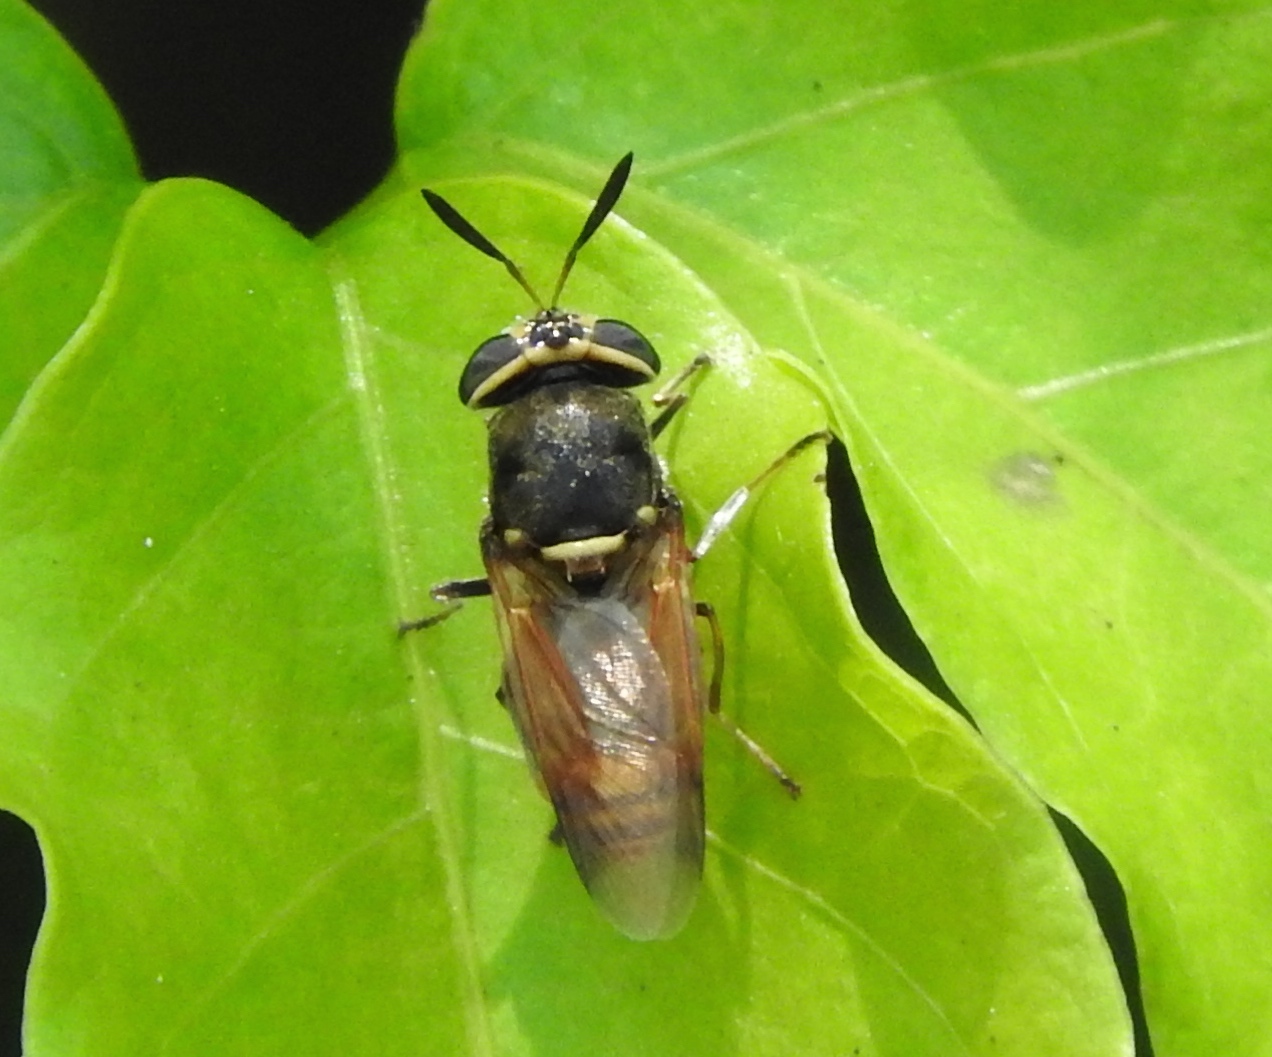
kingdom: Animalia
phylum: Arthropoda
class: Insecta
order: Diptera
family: Stratiomyidae
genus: Hoplitimyia
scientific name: Hoplitimyia
